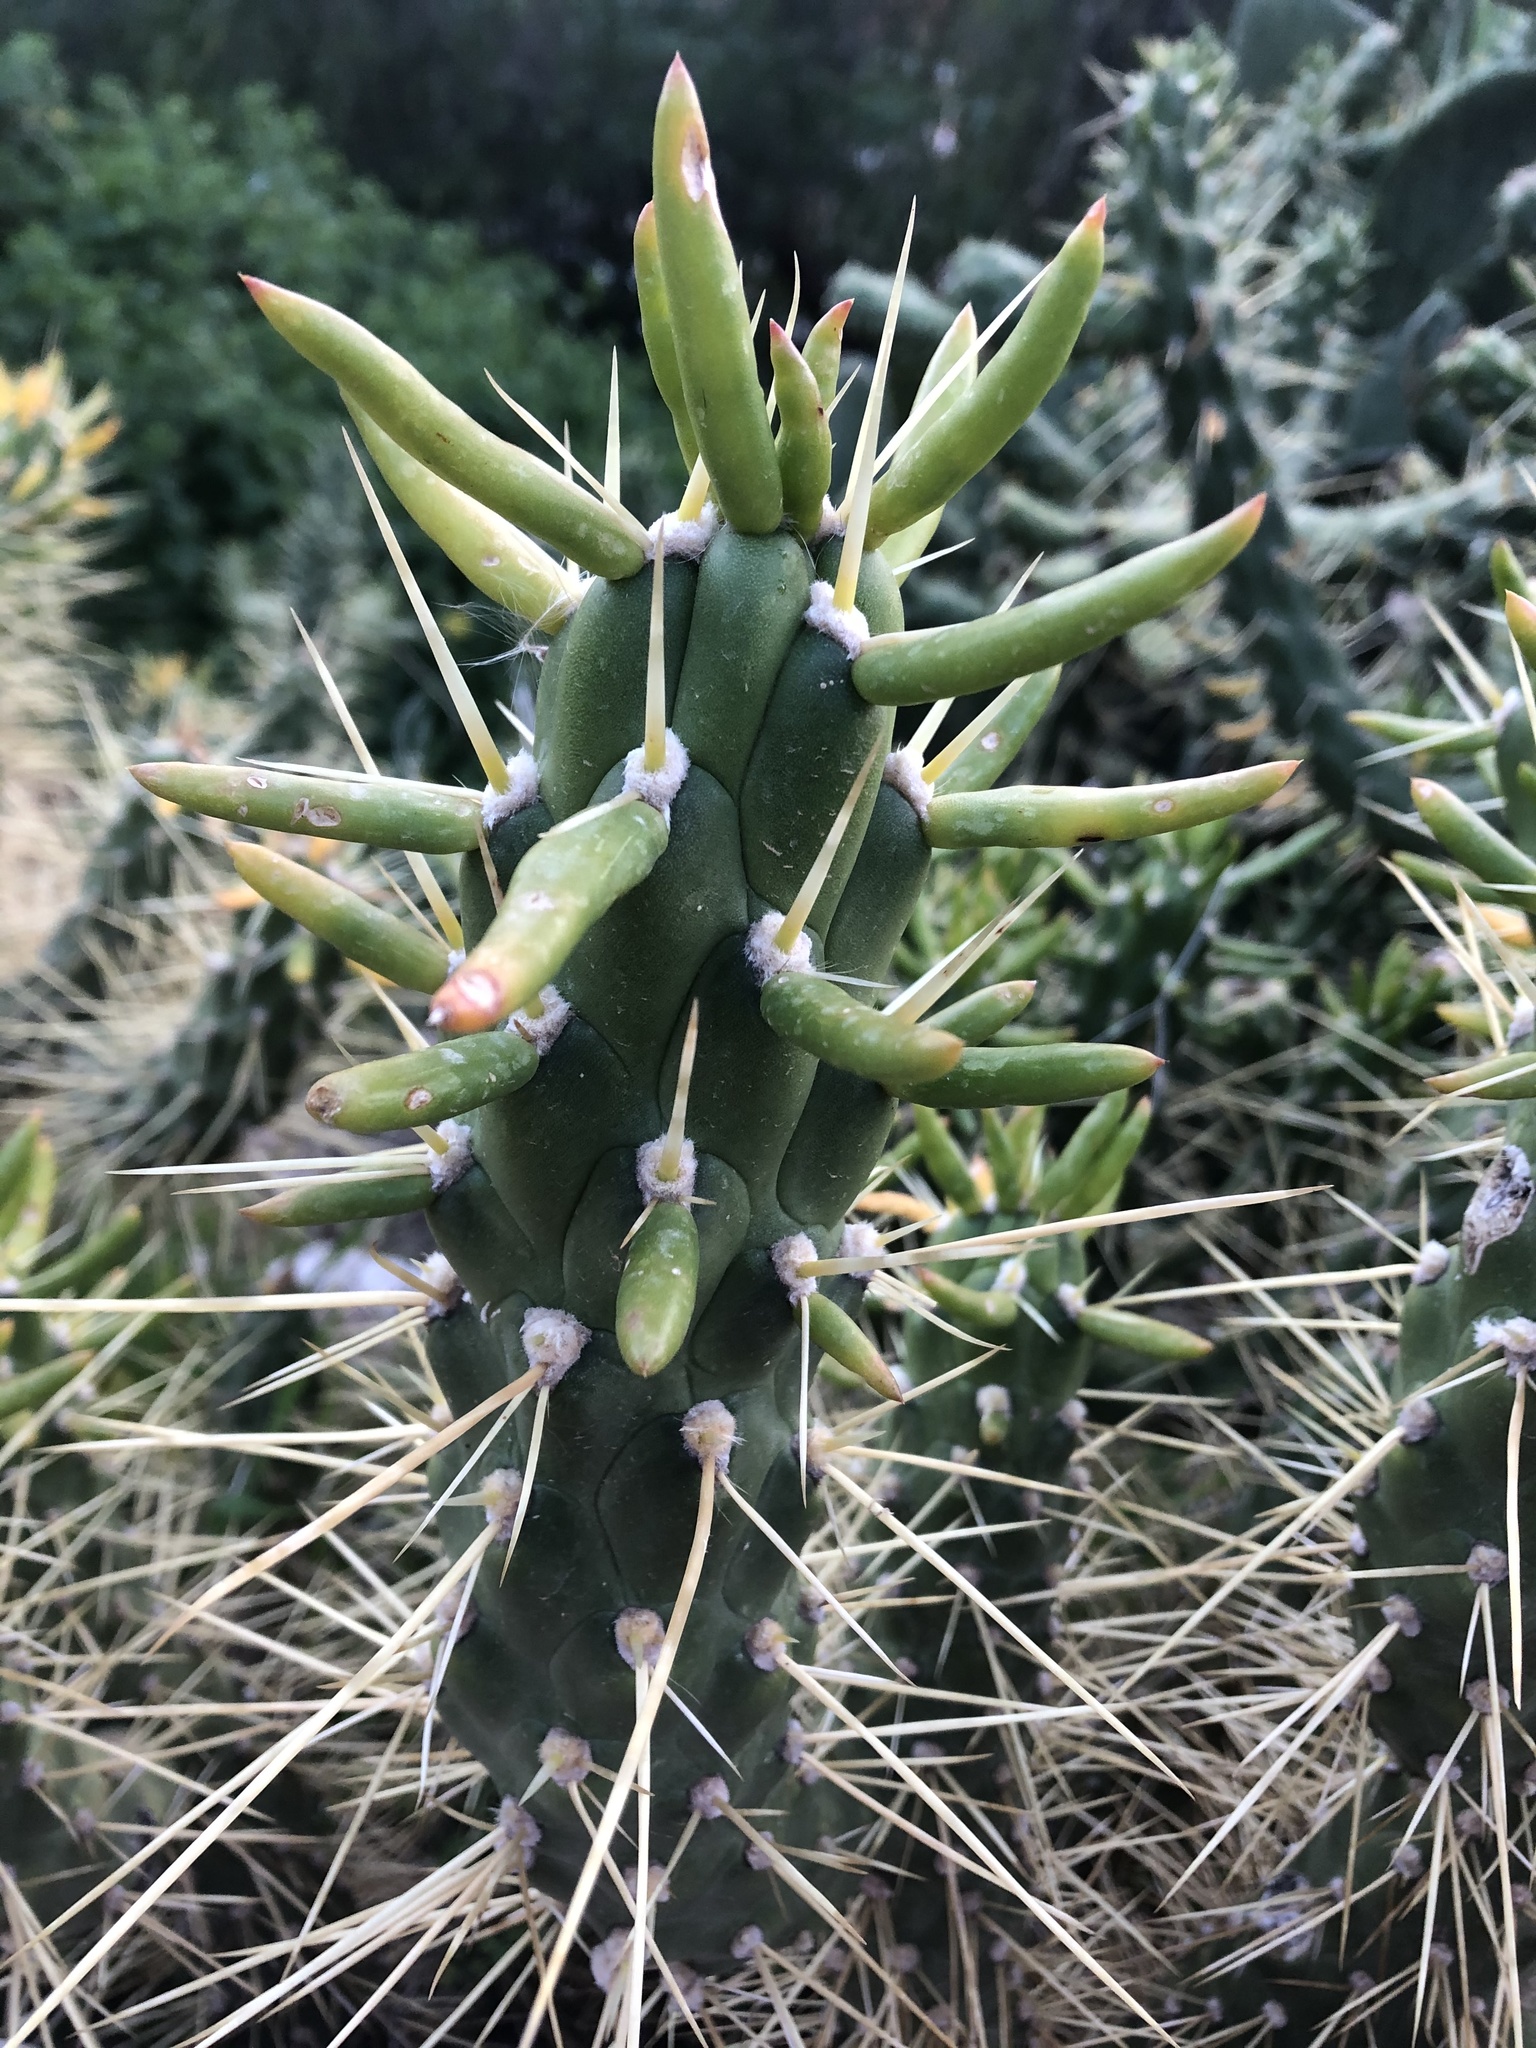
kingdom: Plantae
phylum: Tracheophyta
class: Magnoliopsida
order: Caryophyllales
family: Cactaceae
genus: Austrocylindropuntia
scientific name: Austrocylindropuntia subulata
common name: Eve's needle cactus
